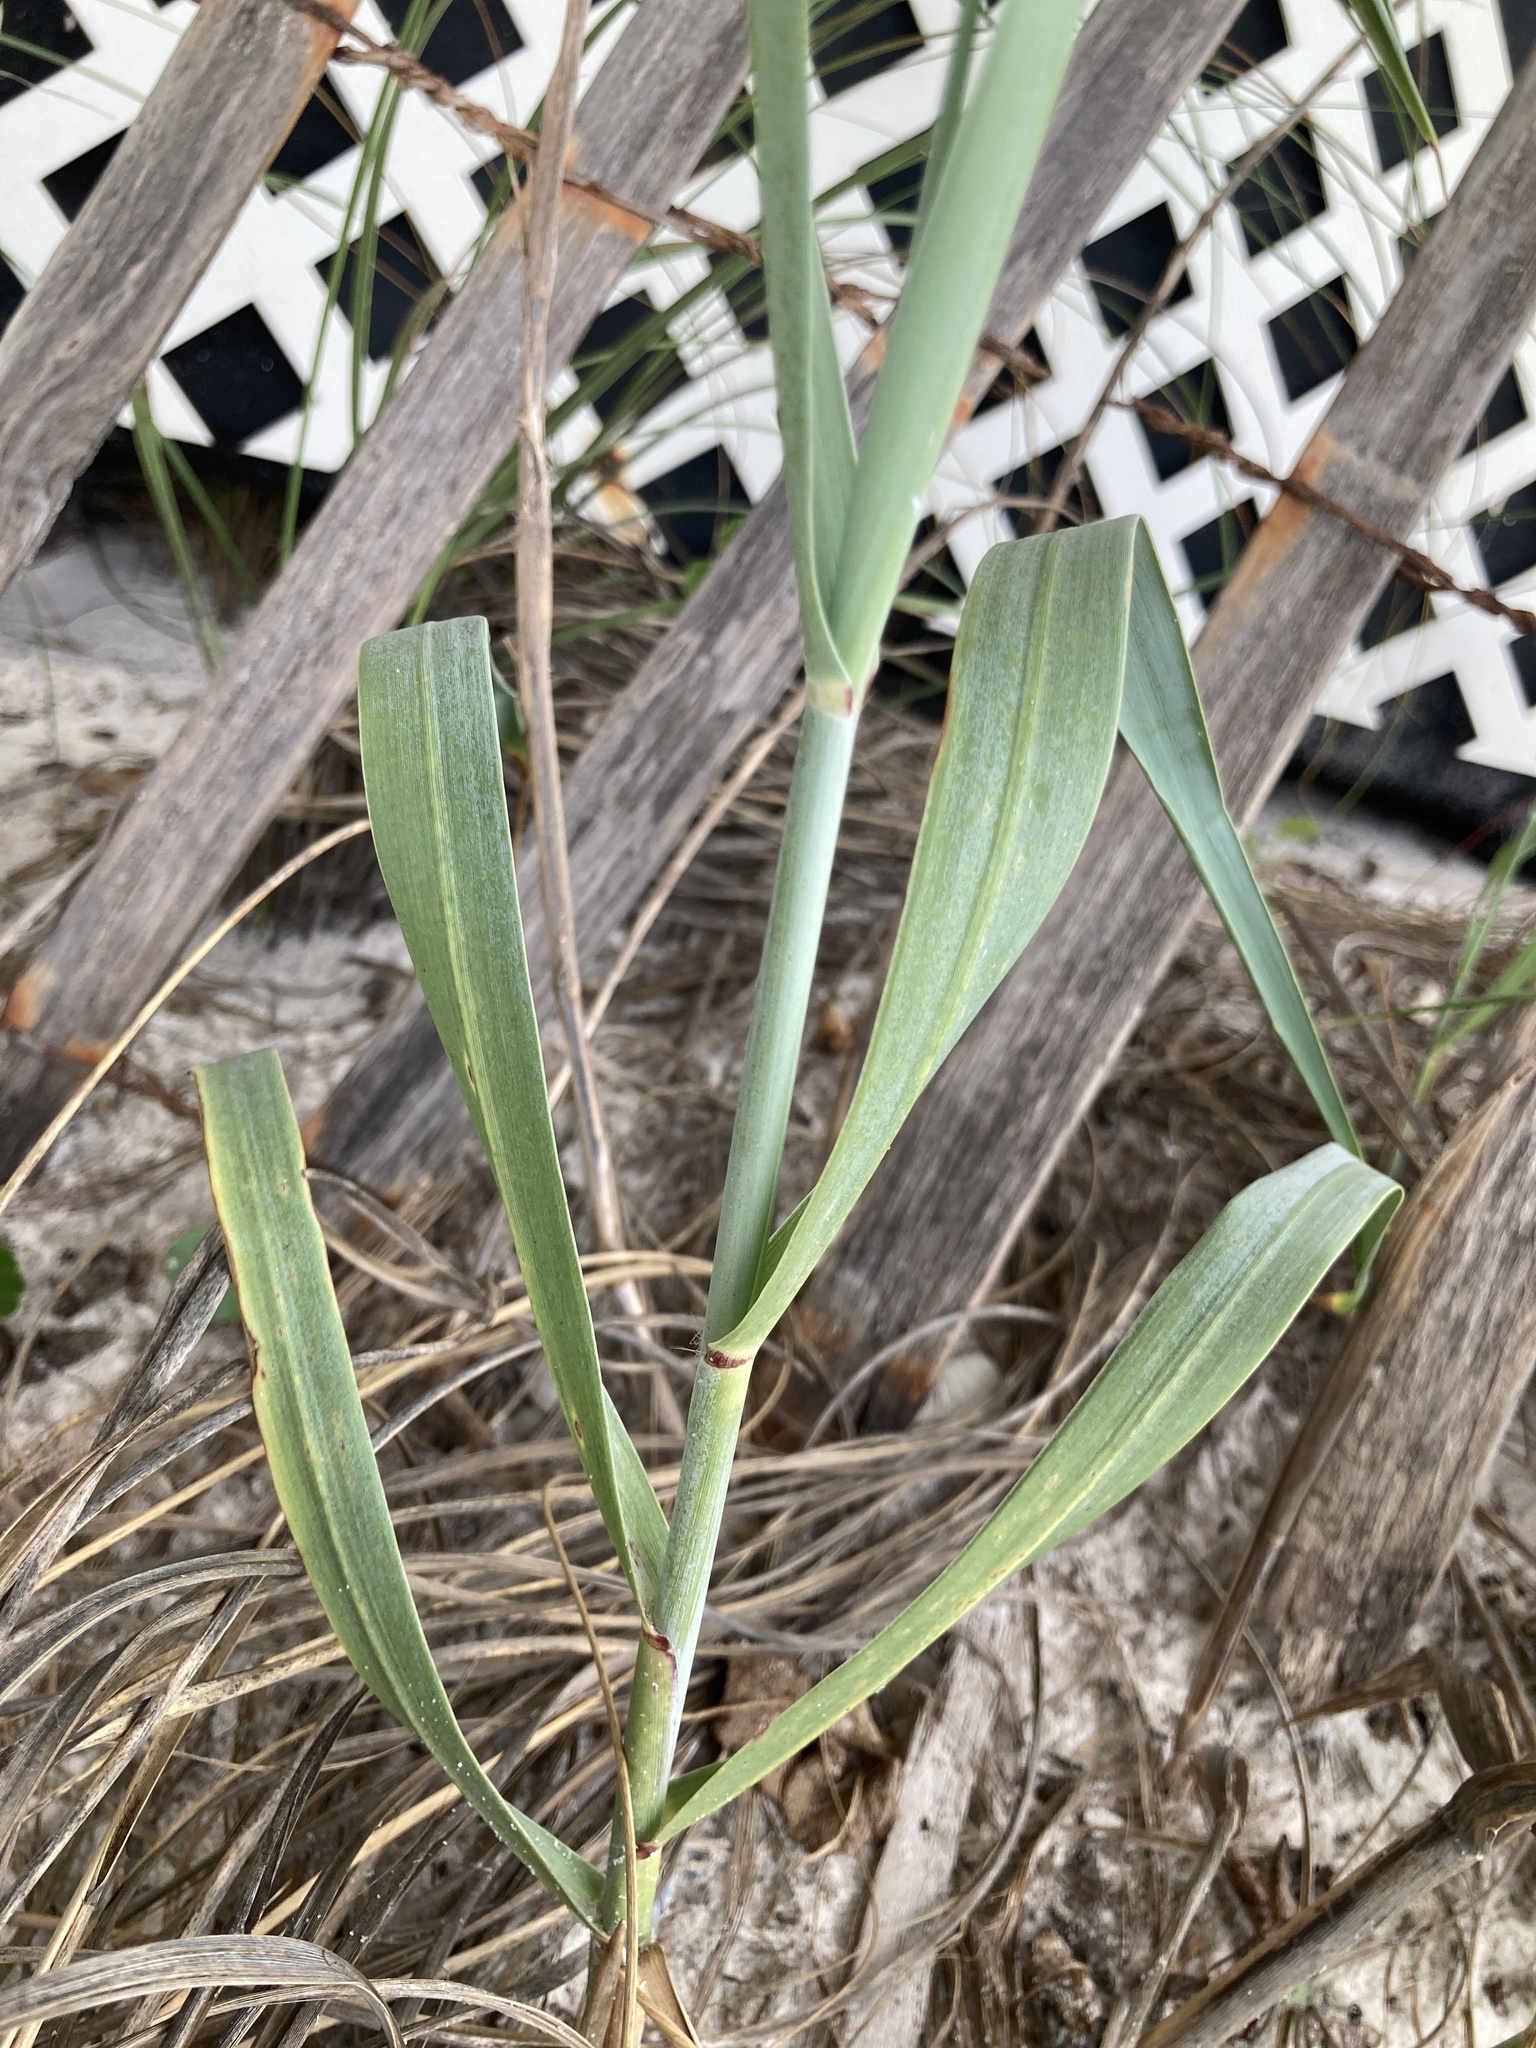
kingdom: Plantae
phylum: Tracheophyta
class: Liliopsida
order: Poales
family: Poaceae
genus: Panicum
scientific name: Panicum amarum
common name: Bitter panicum
